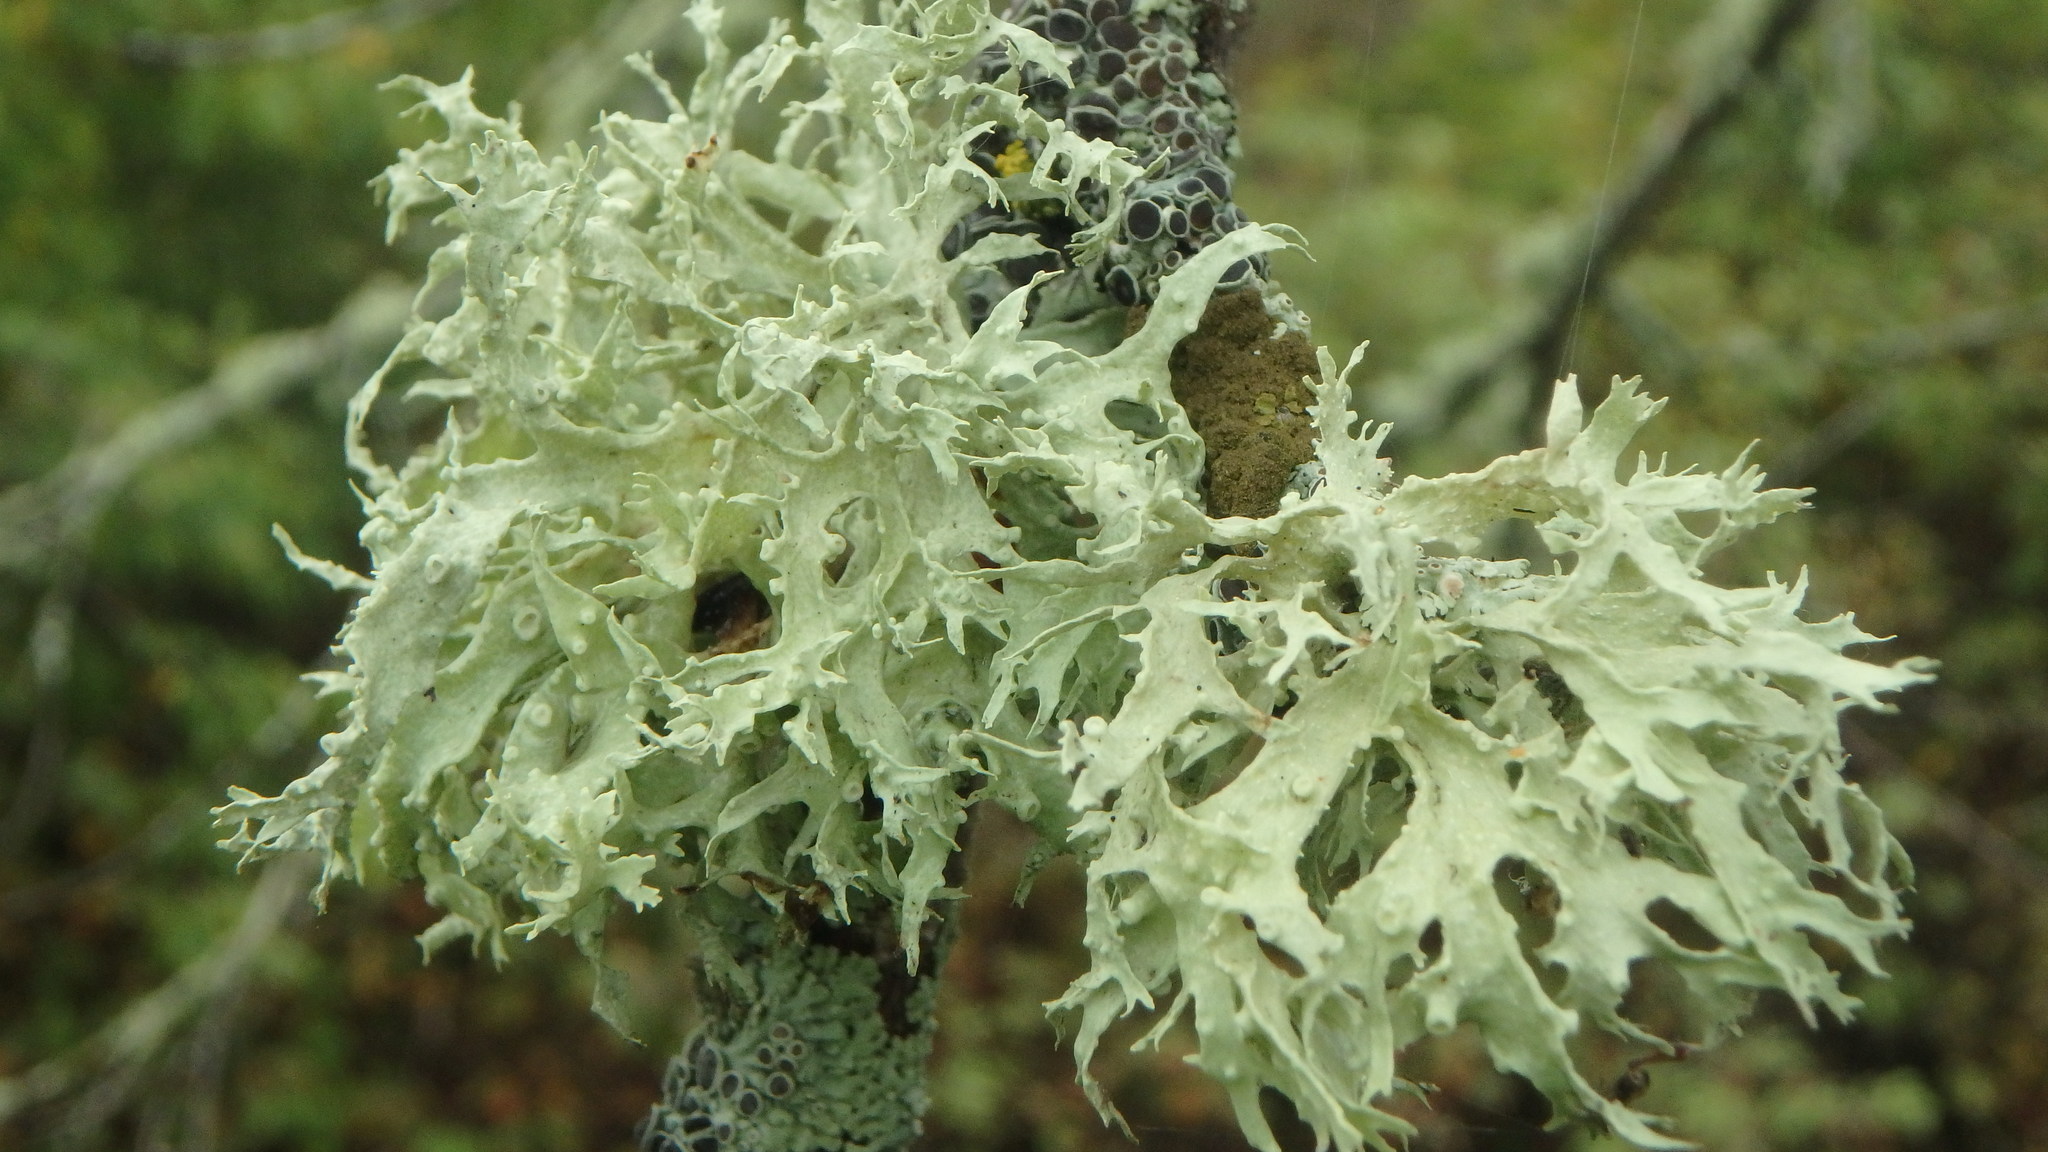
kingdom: Fungi
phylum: Ascomycota
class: Lecanoromycetes
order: Lecanorales
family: Ramalinaceae
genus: Ramalina
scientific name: Ramalina americana
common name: Sinewed bush lichen
